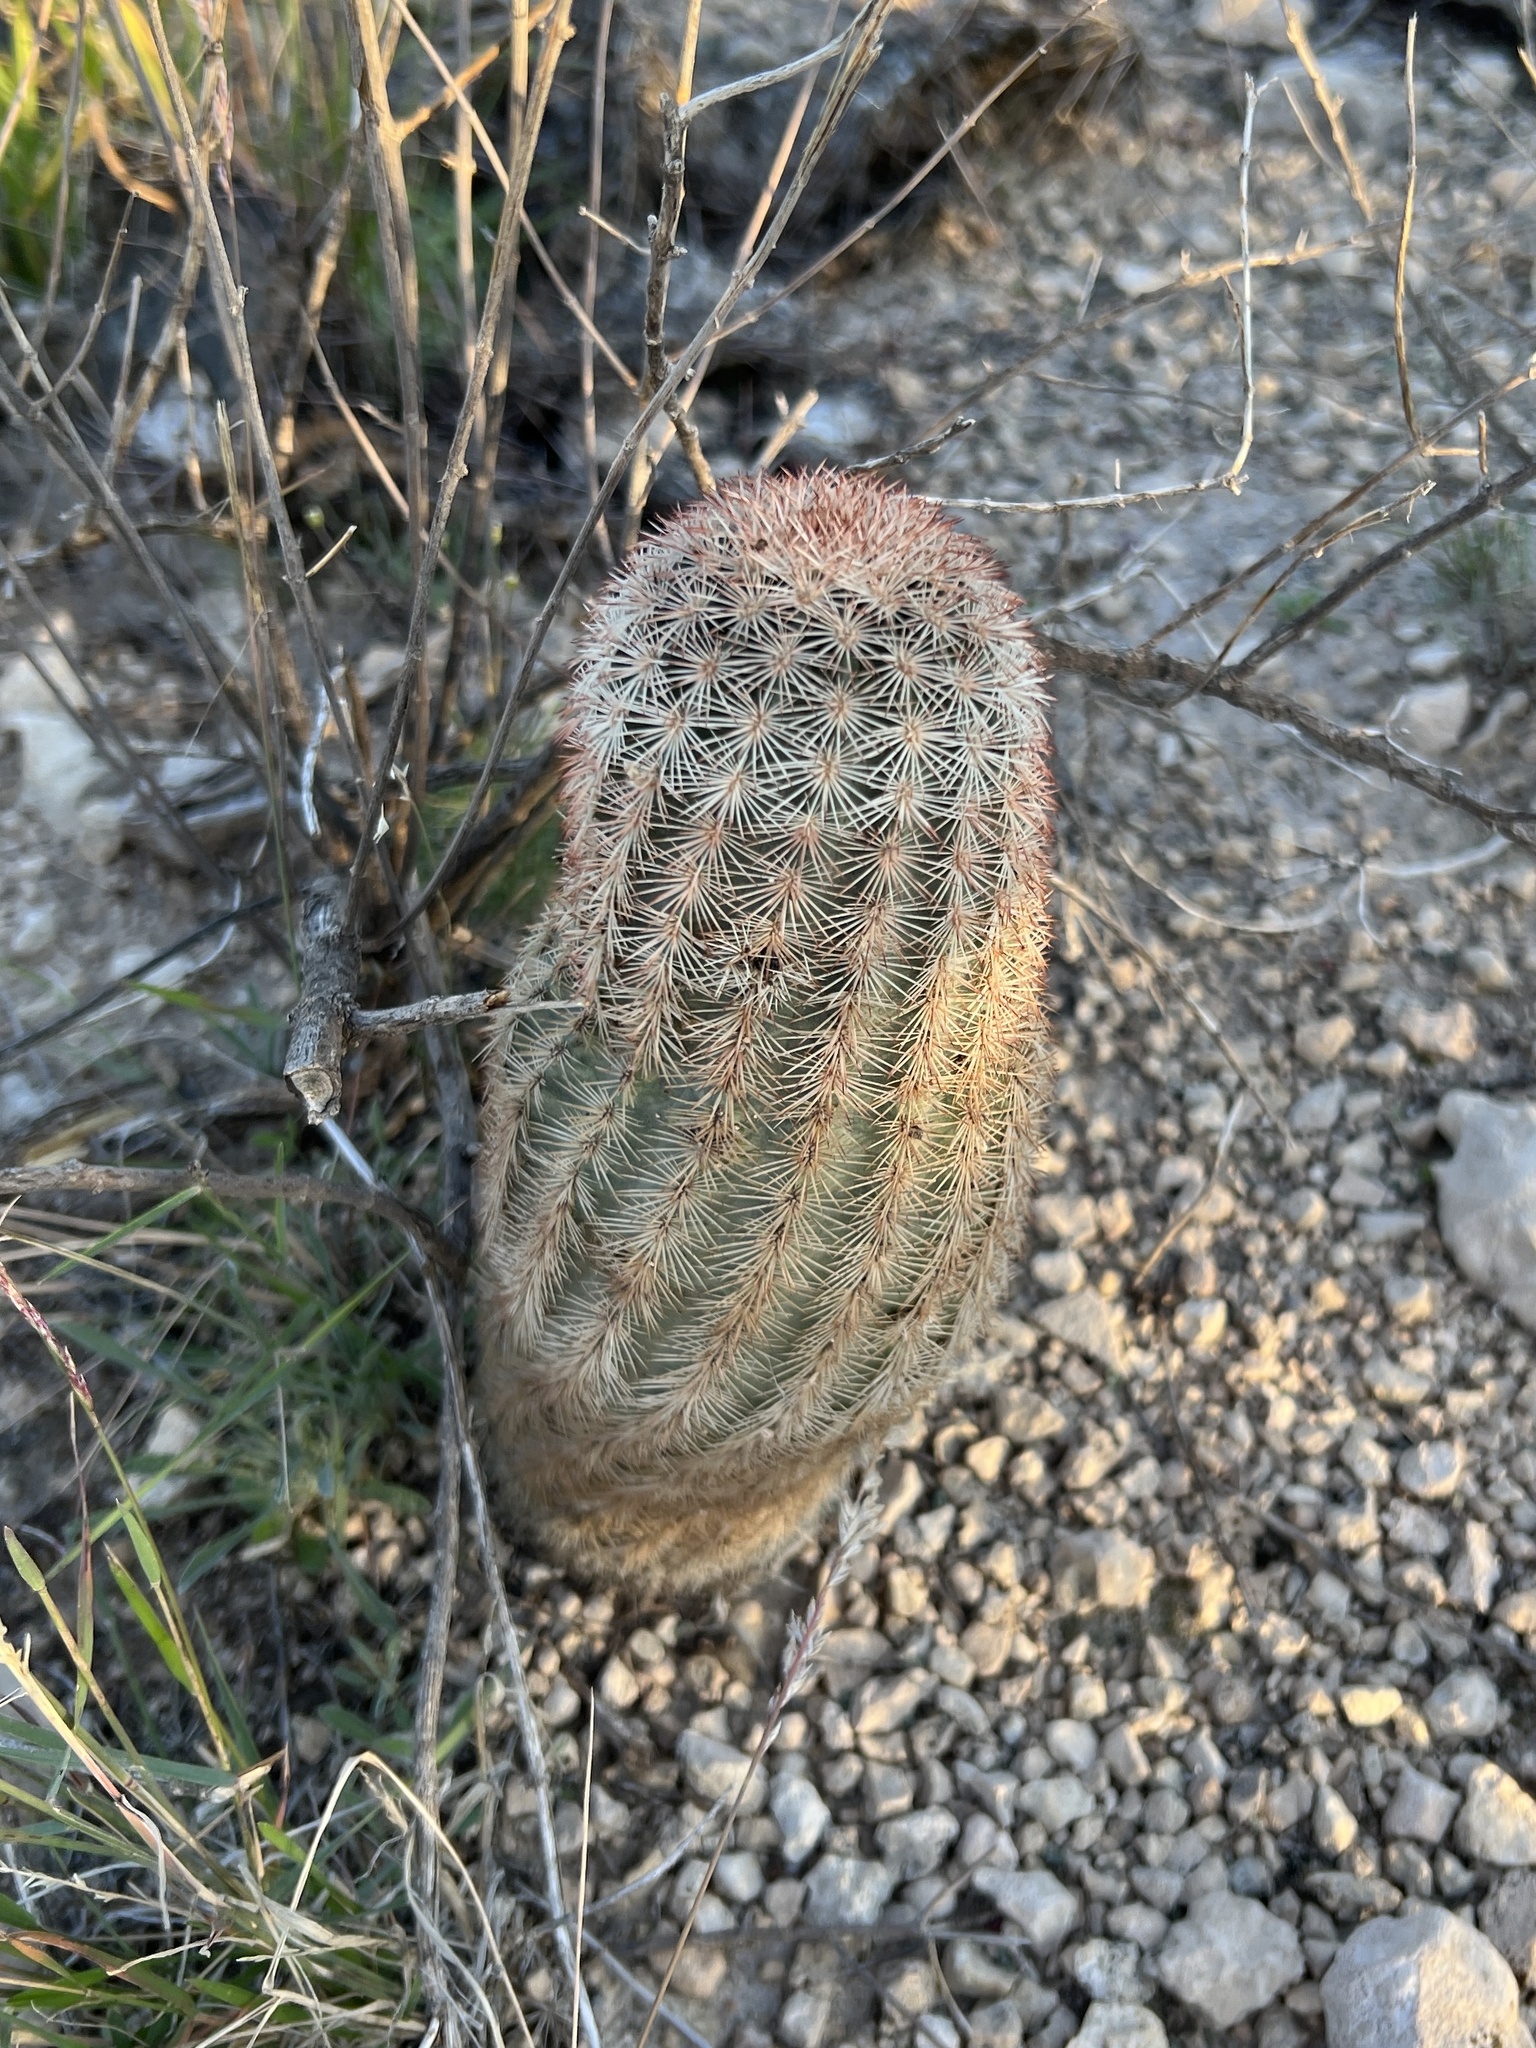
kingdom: Plantae
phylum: Tracheophyta
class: Magnoliopsida
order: Caryophyllales
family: Cactaceae
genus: Echinocereus
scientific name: Echinocereus dasyacanthus
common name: Spiny hedgehog cactus
